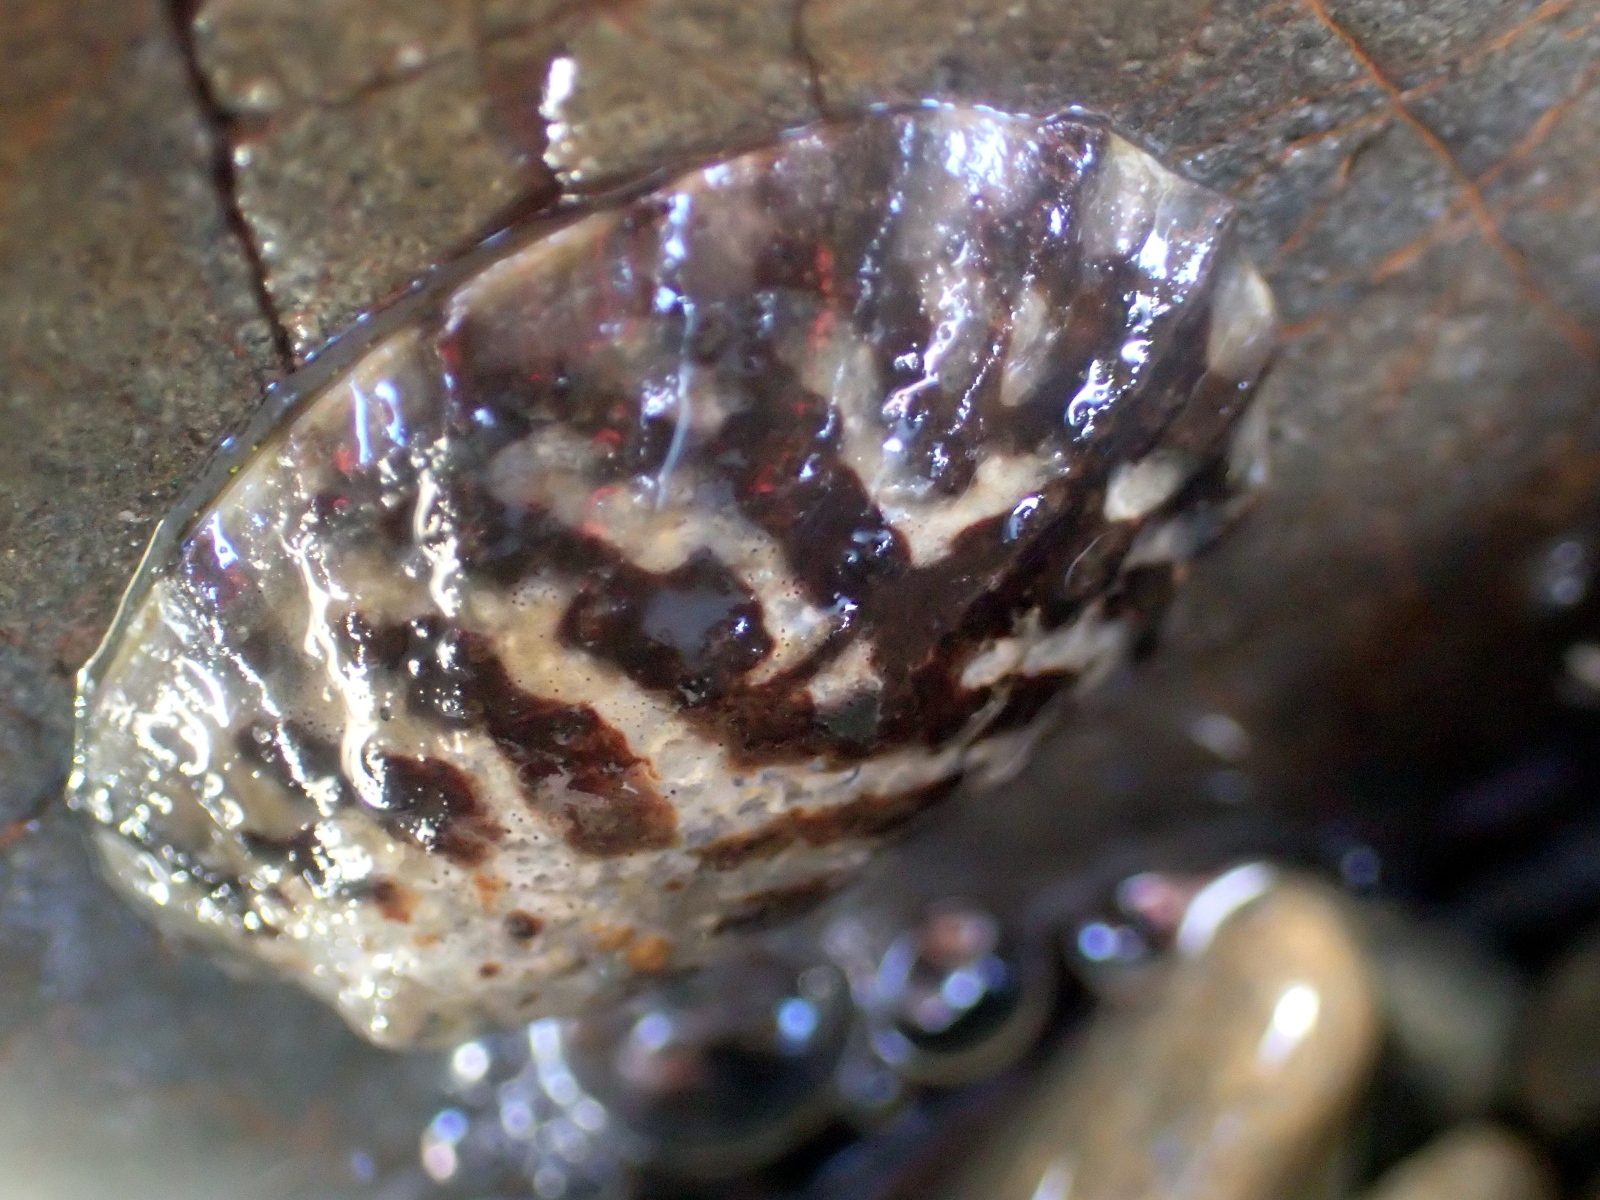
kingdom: Animalia
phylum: Mollusca
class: Gastropoda
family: Nacellidae
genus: Cellana
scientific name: Cellana radians
